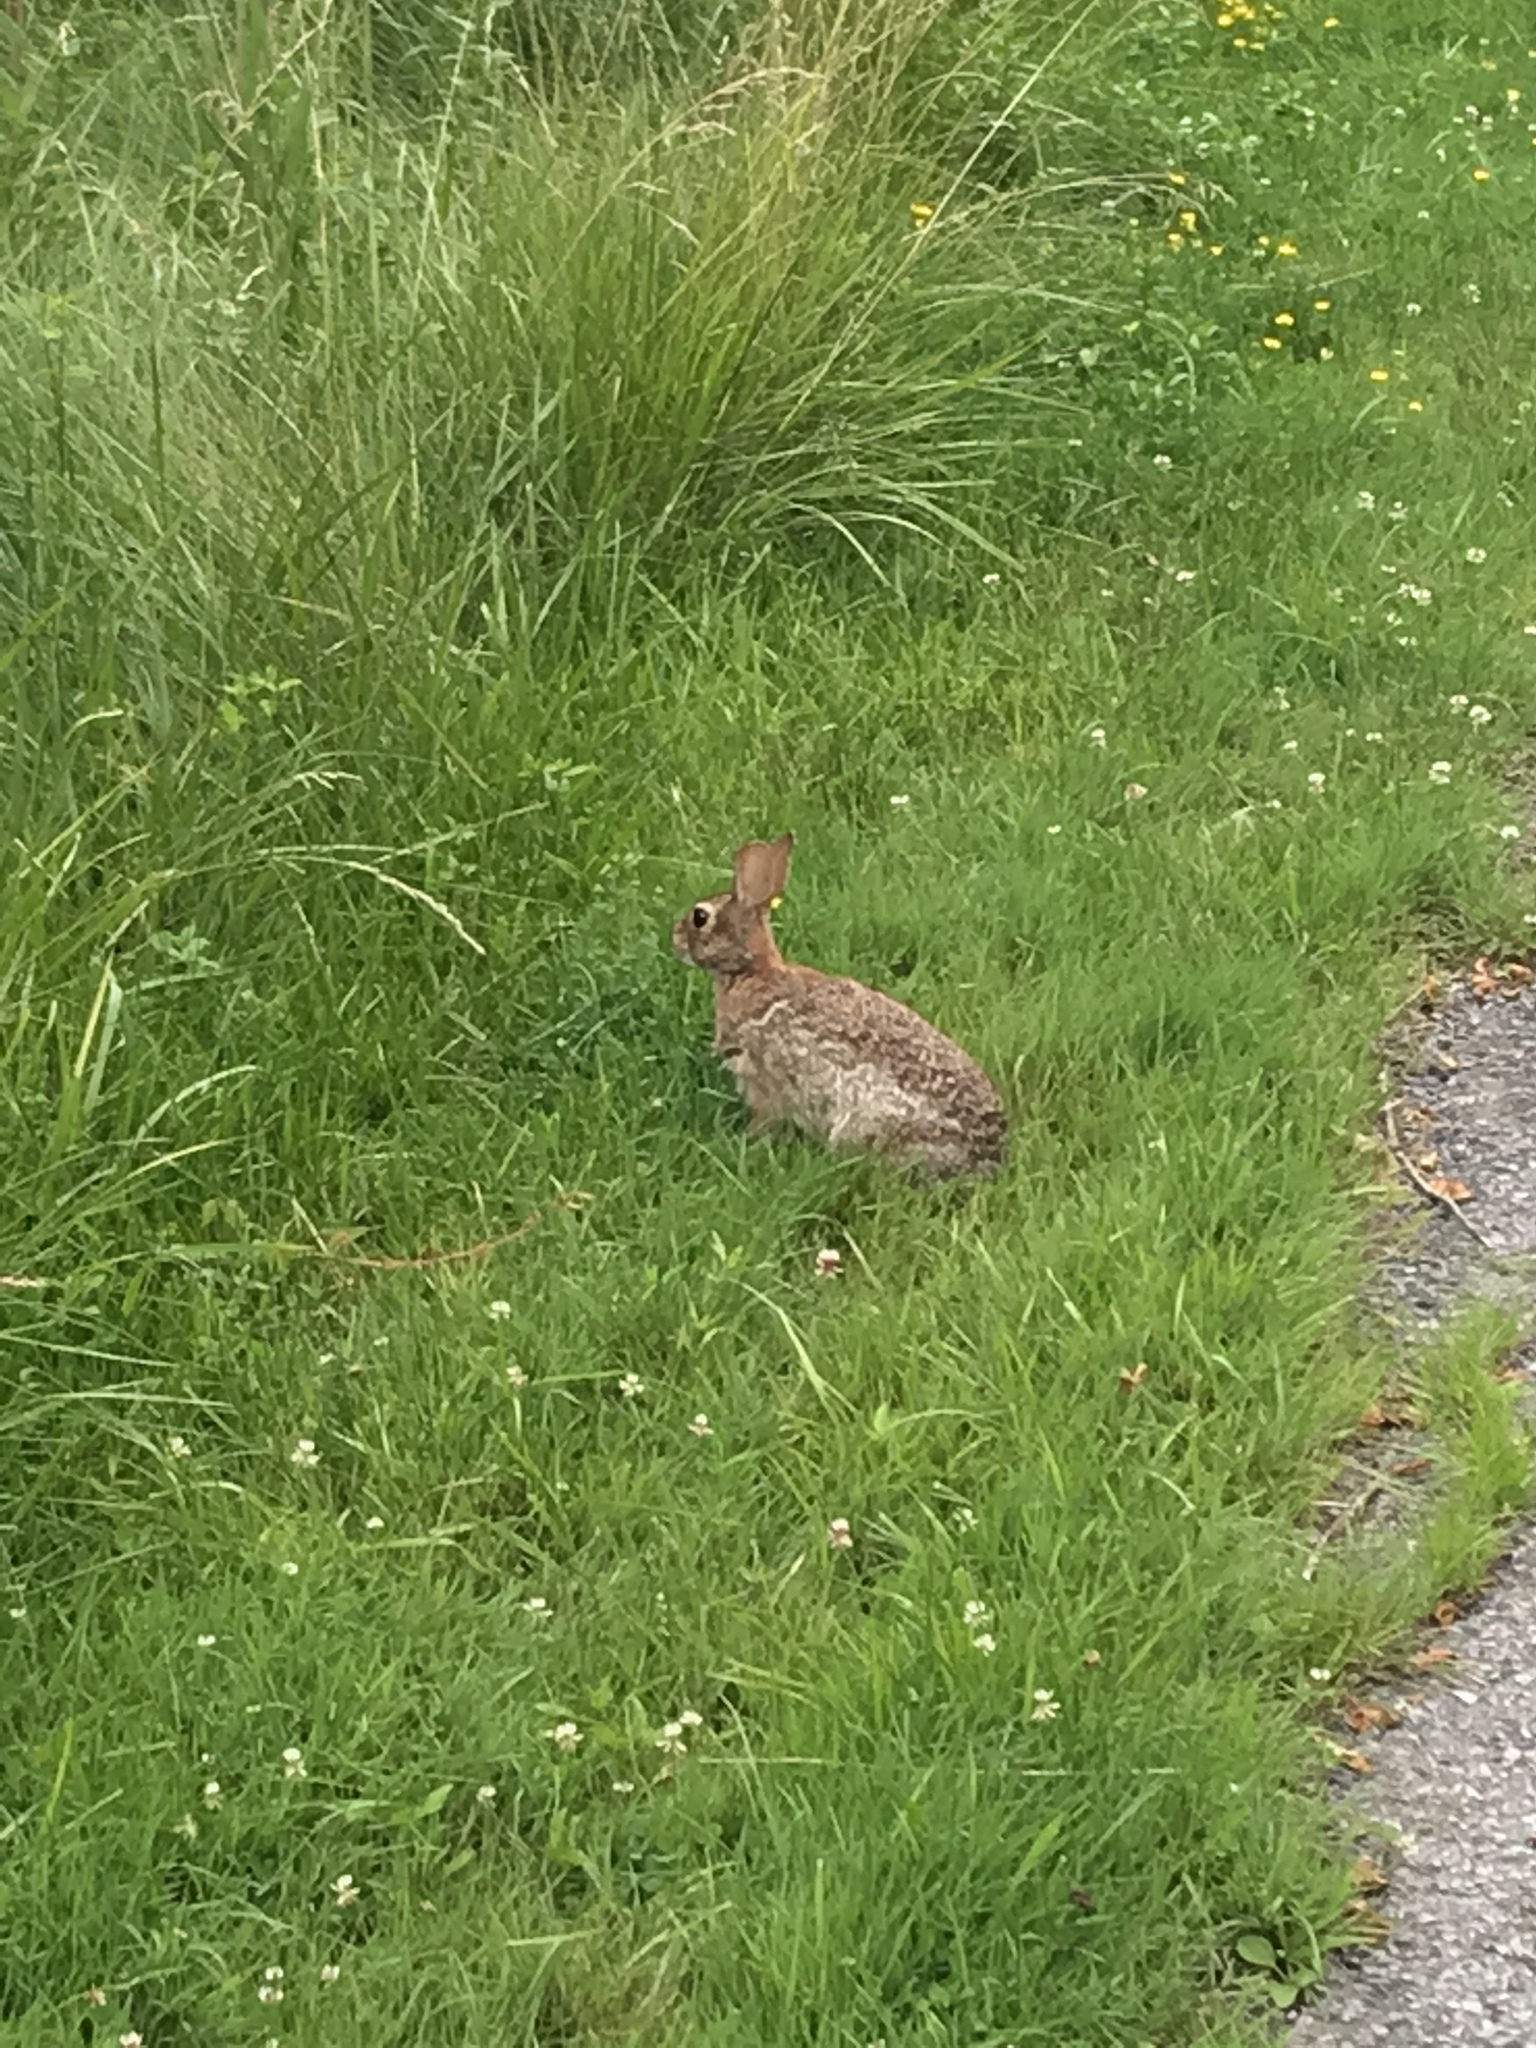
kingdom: Animalia
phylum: Chordata
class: Mammalia
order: Lagomorpha
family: Leporidae
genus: Sylvilagus
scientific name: Sylvilagus floridanus
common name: Eastern cottontail
